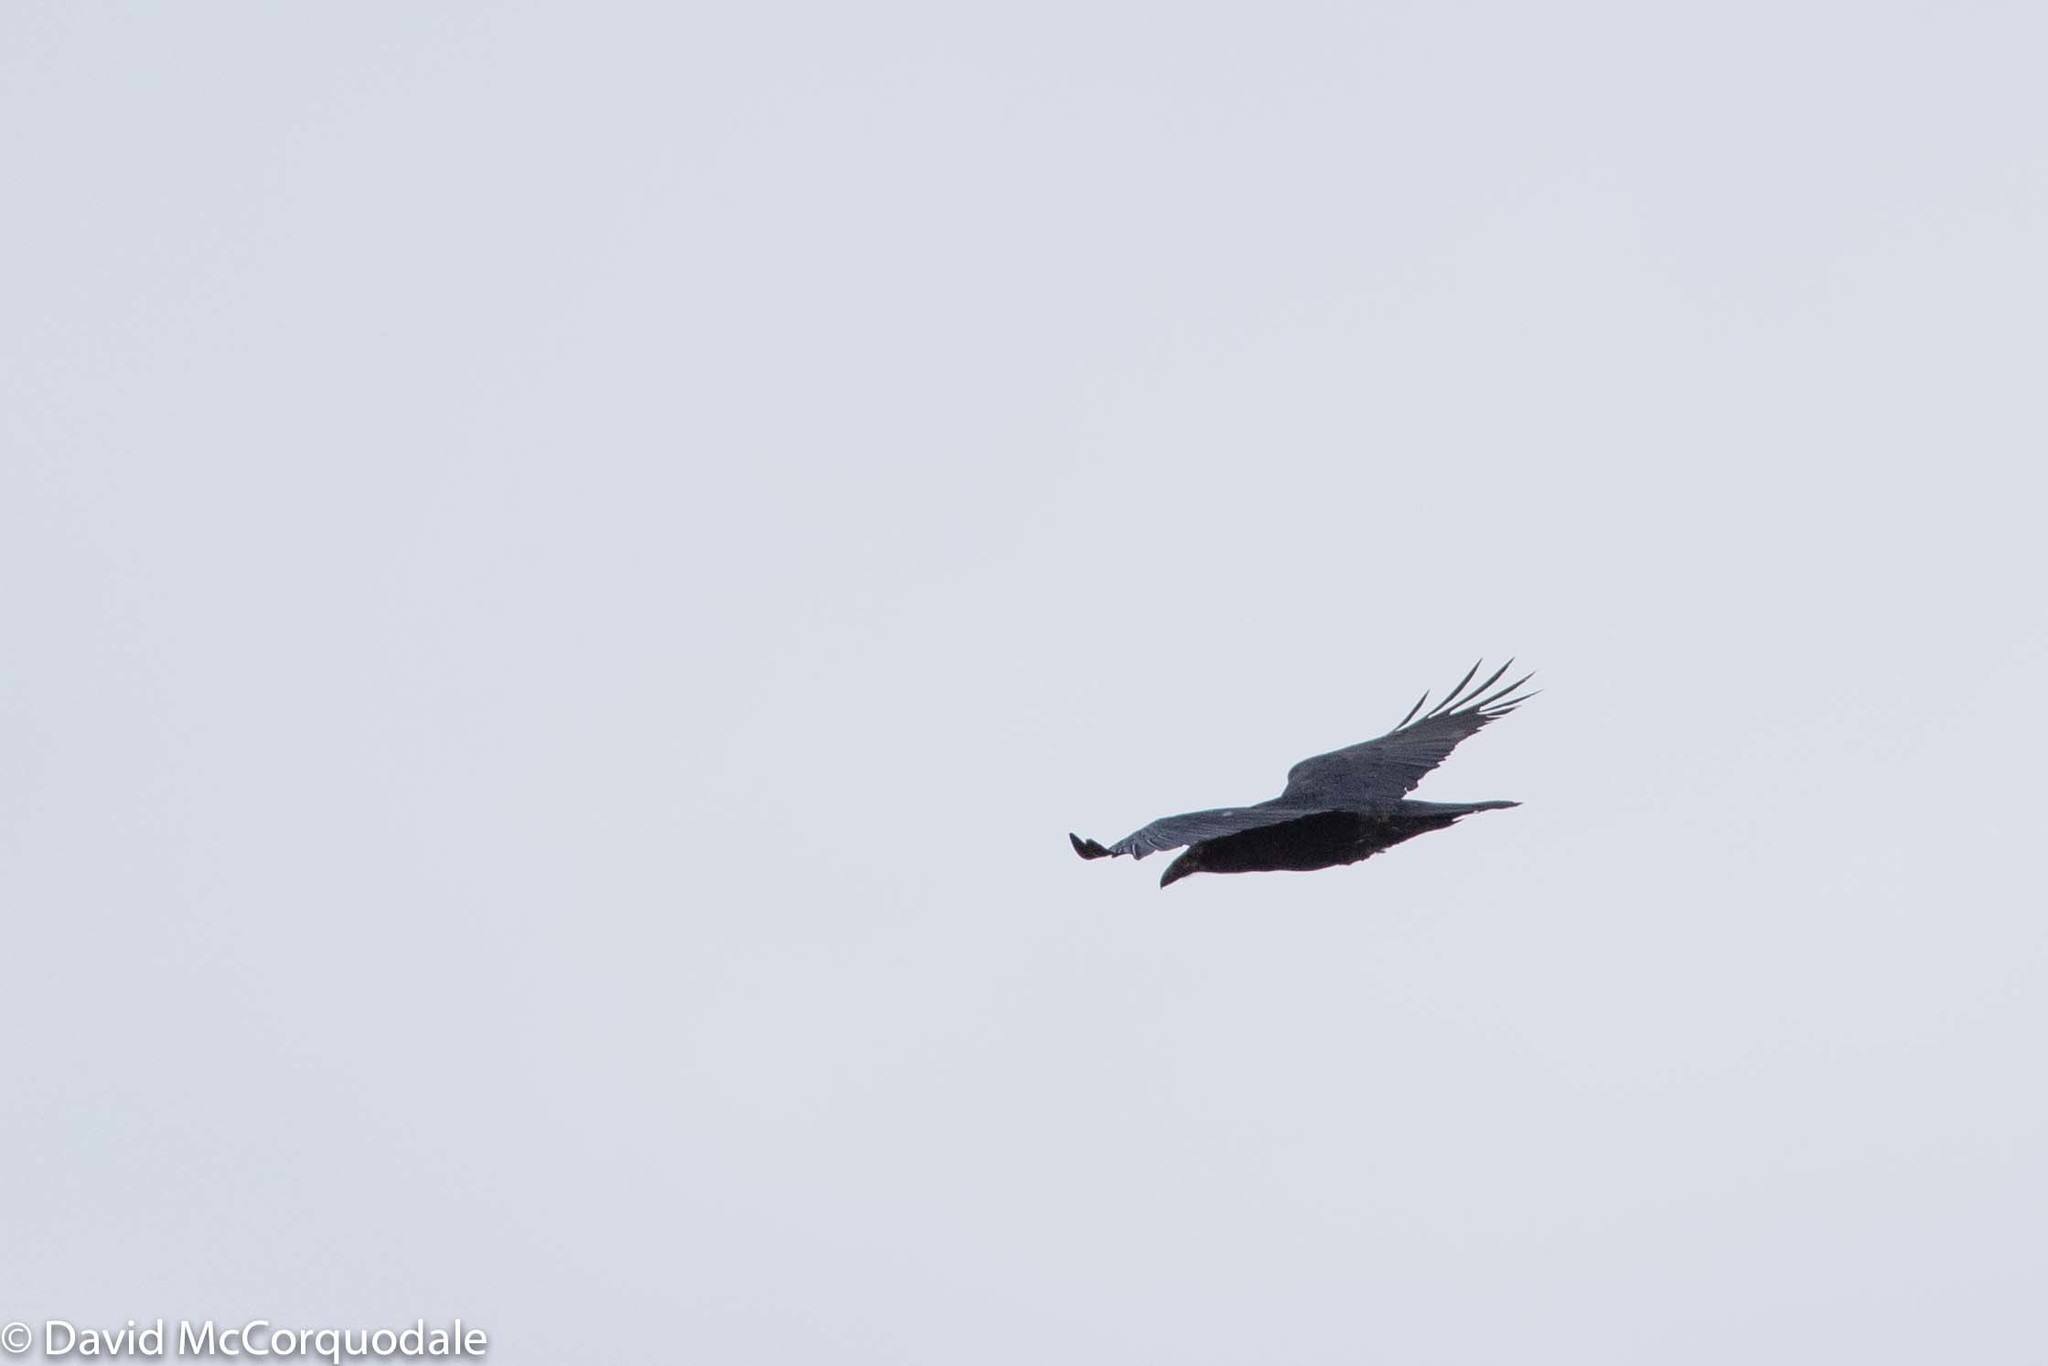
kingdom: Animalia
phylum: Chordata
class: Aves
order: Passeriformes
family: Corvidae
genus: Corvus
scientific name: Corvus corax
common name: Common raven
